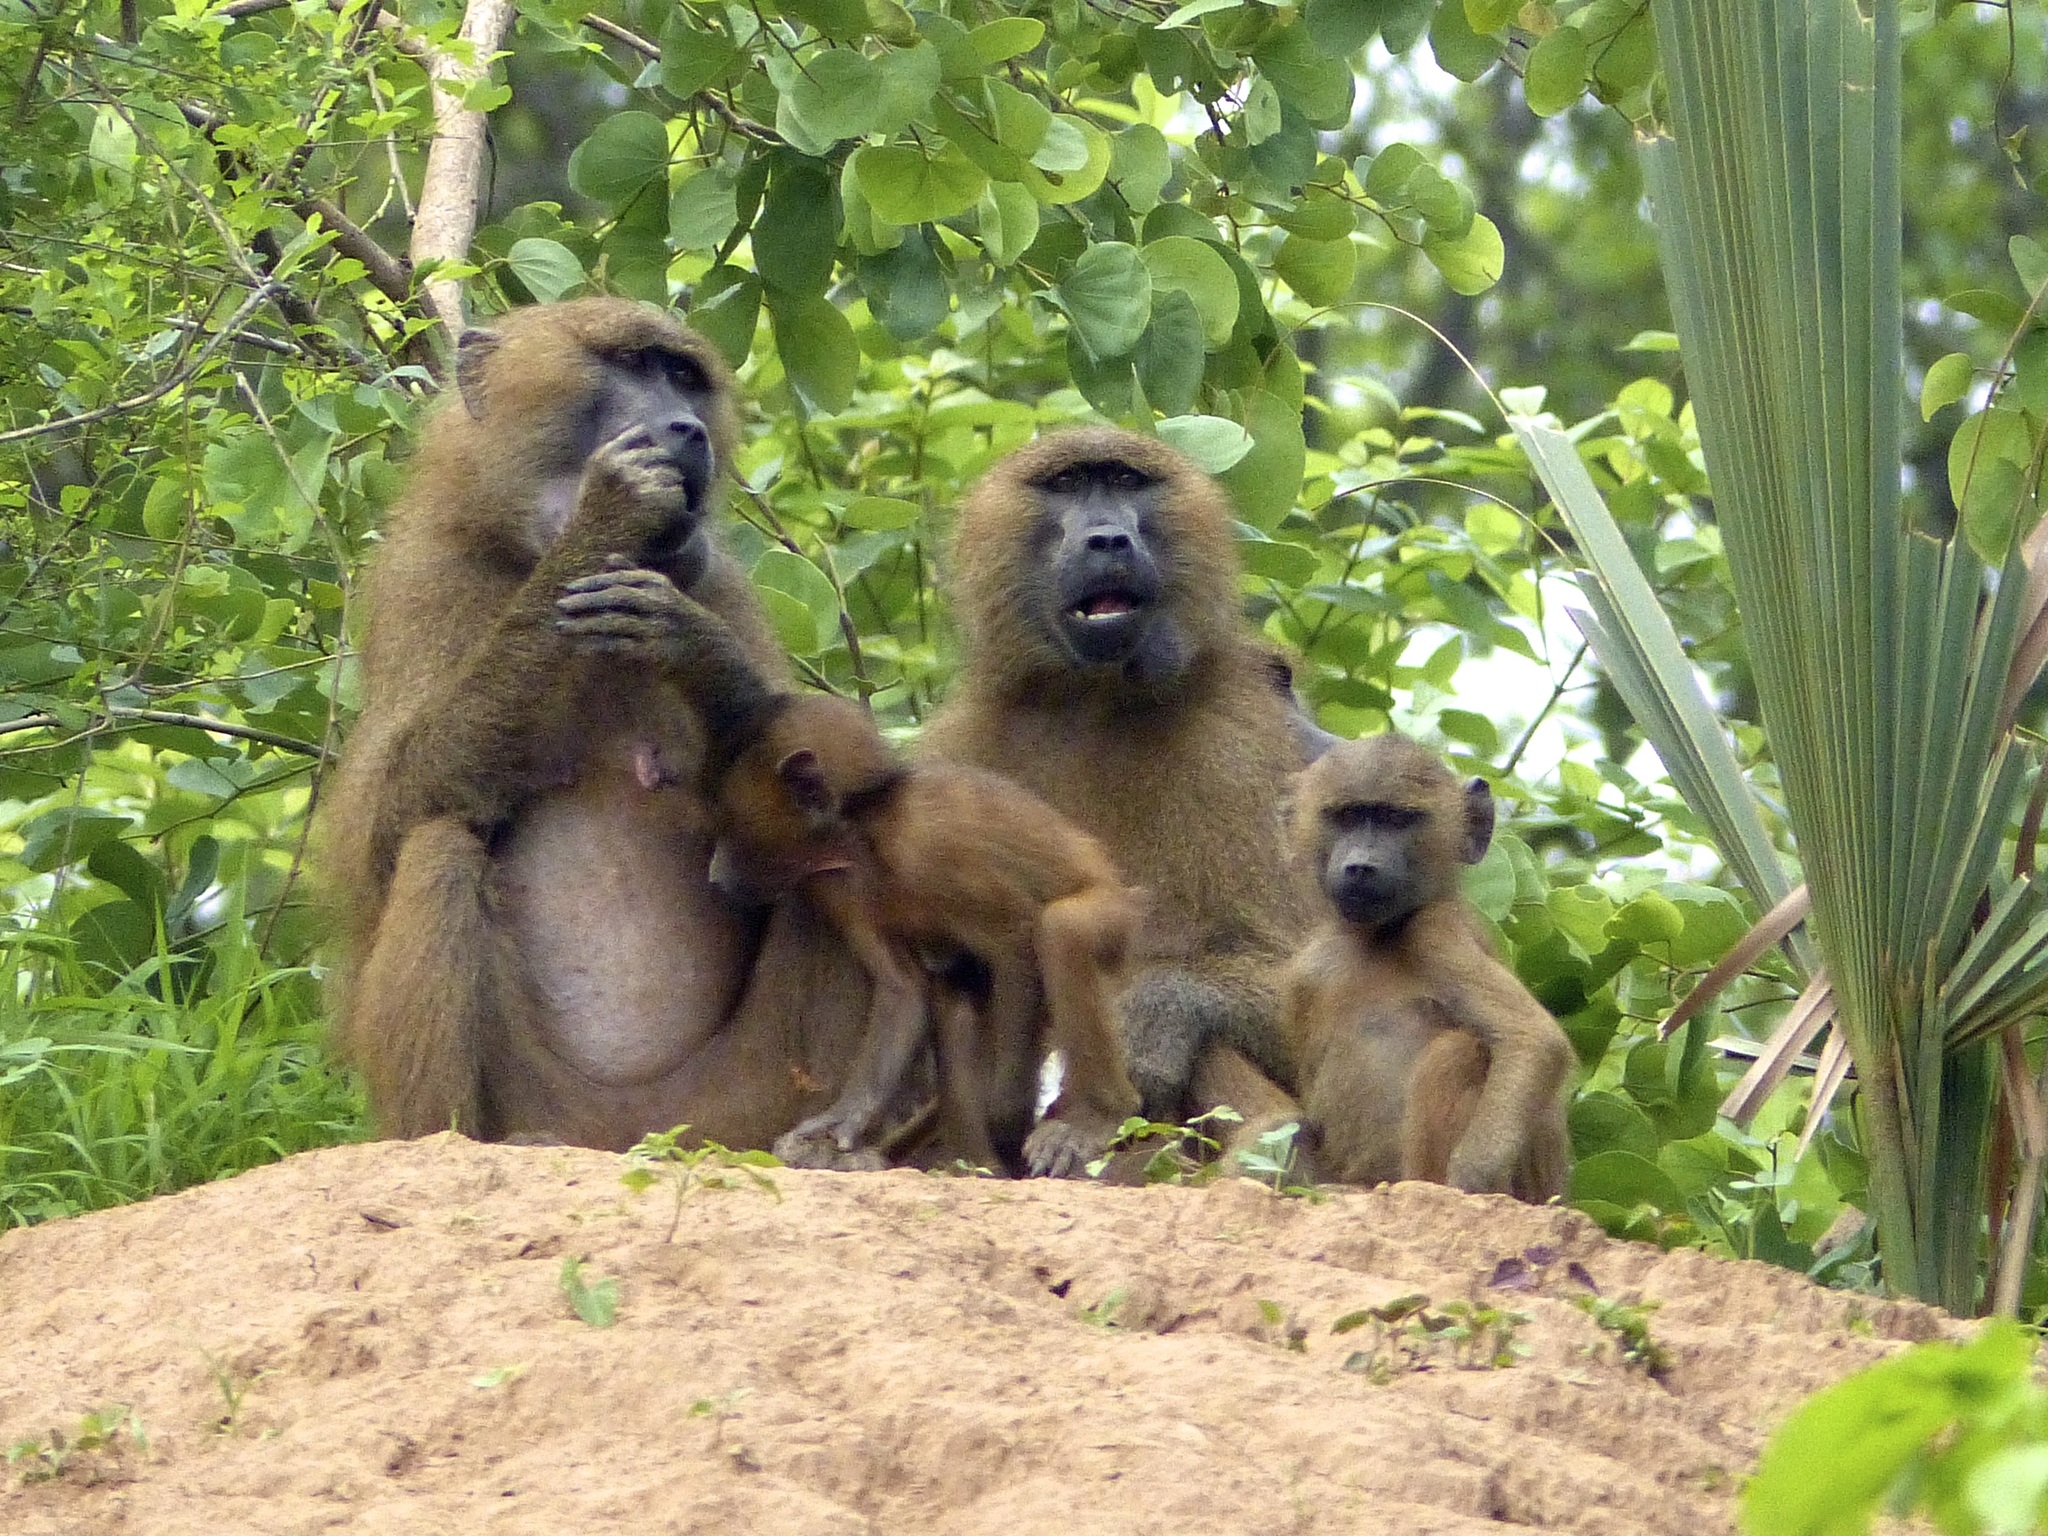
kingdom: Animalia
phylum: Chordata
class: Mammalia
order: Primates
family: Cercopithecidae
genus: Papio
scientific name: Papio papio
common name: Guinea baboon
